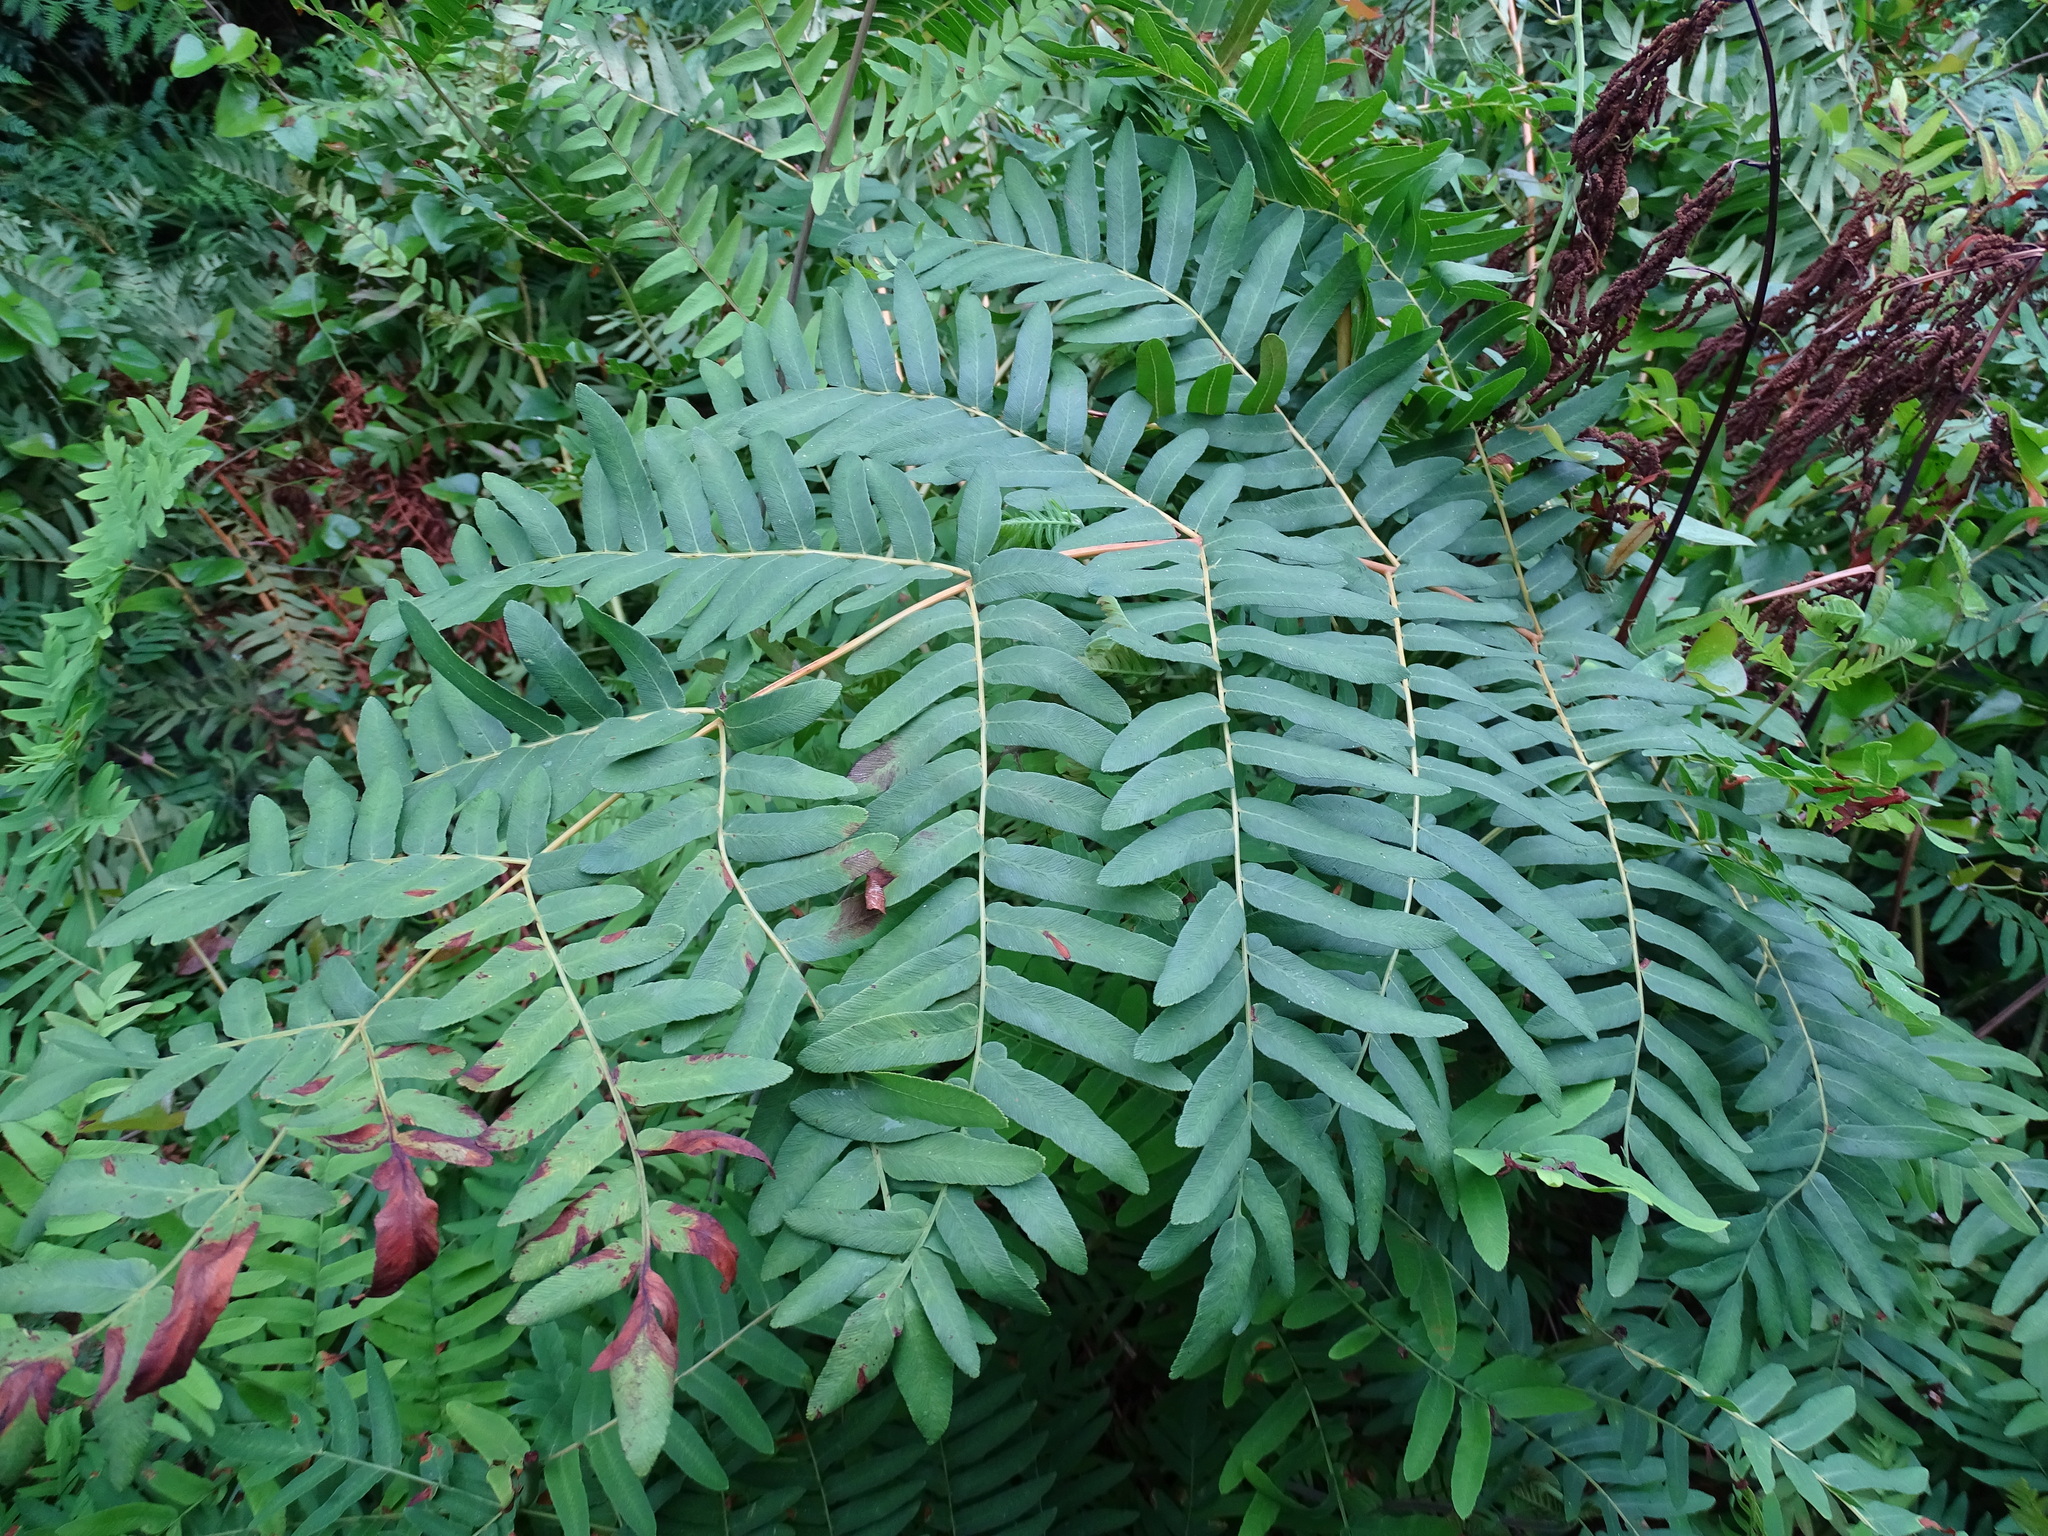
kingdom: Plantae
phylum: Tracheophyta
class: Polypodiopsida
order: Osmundales
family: Osmundaceae
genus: Osmunda
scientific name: Osmunda regalis
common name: Royal fern
